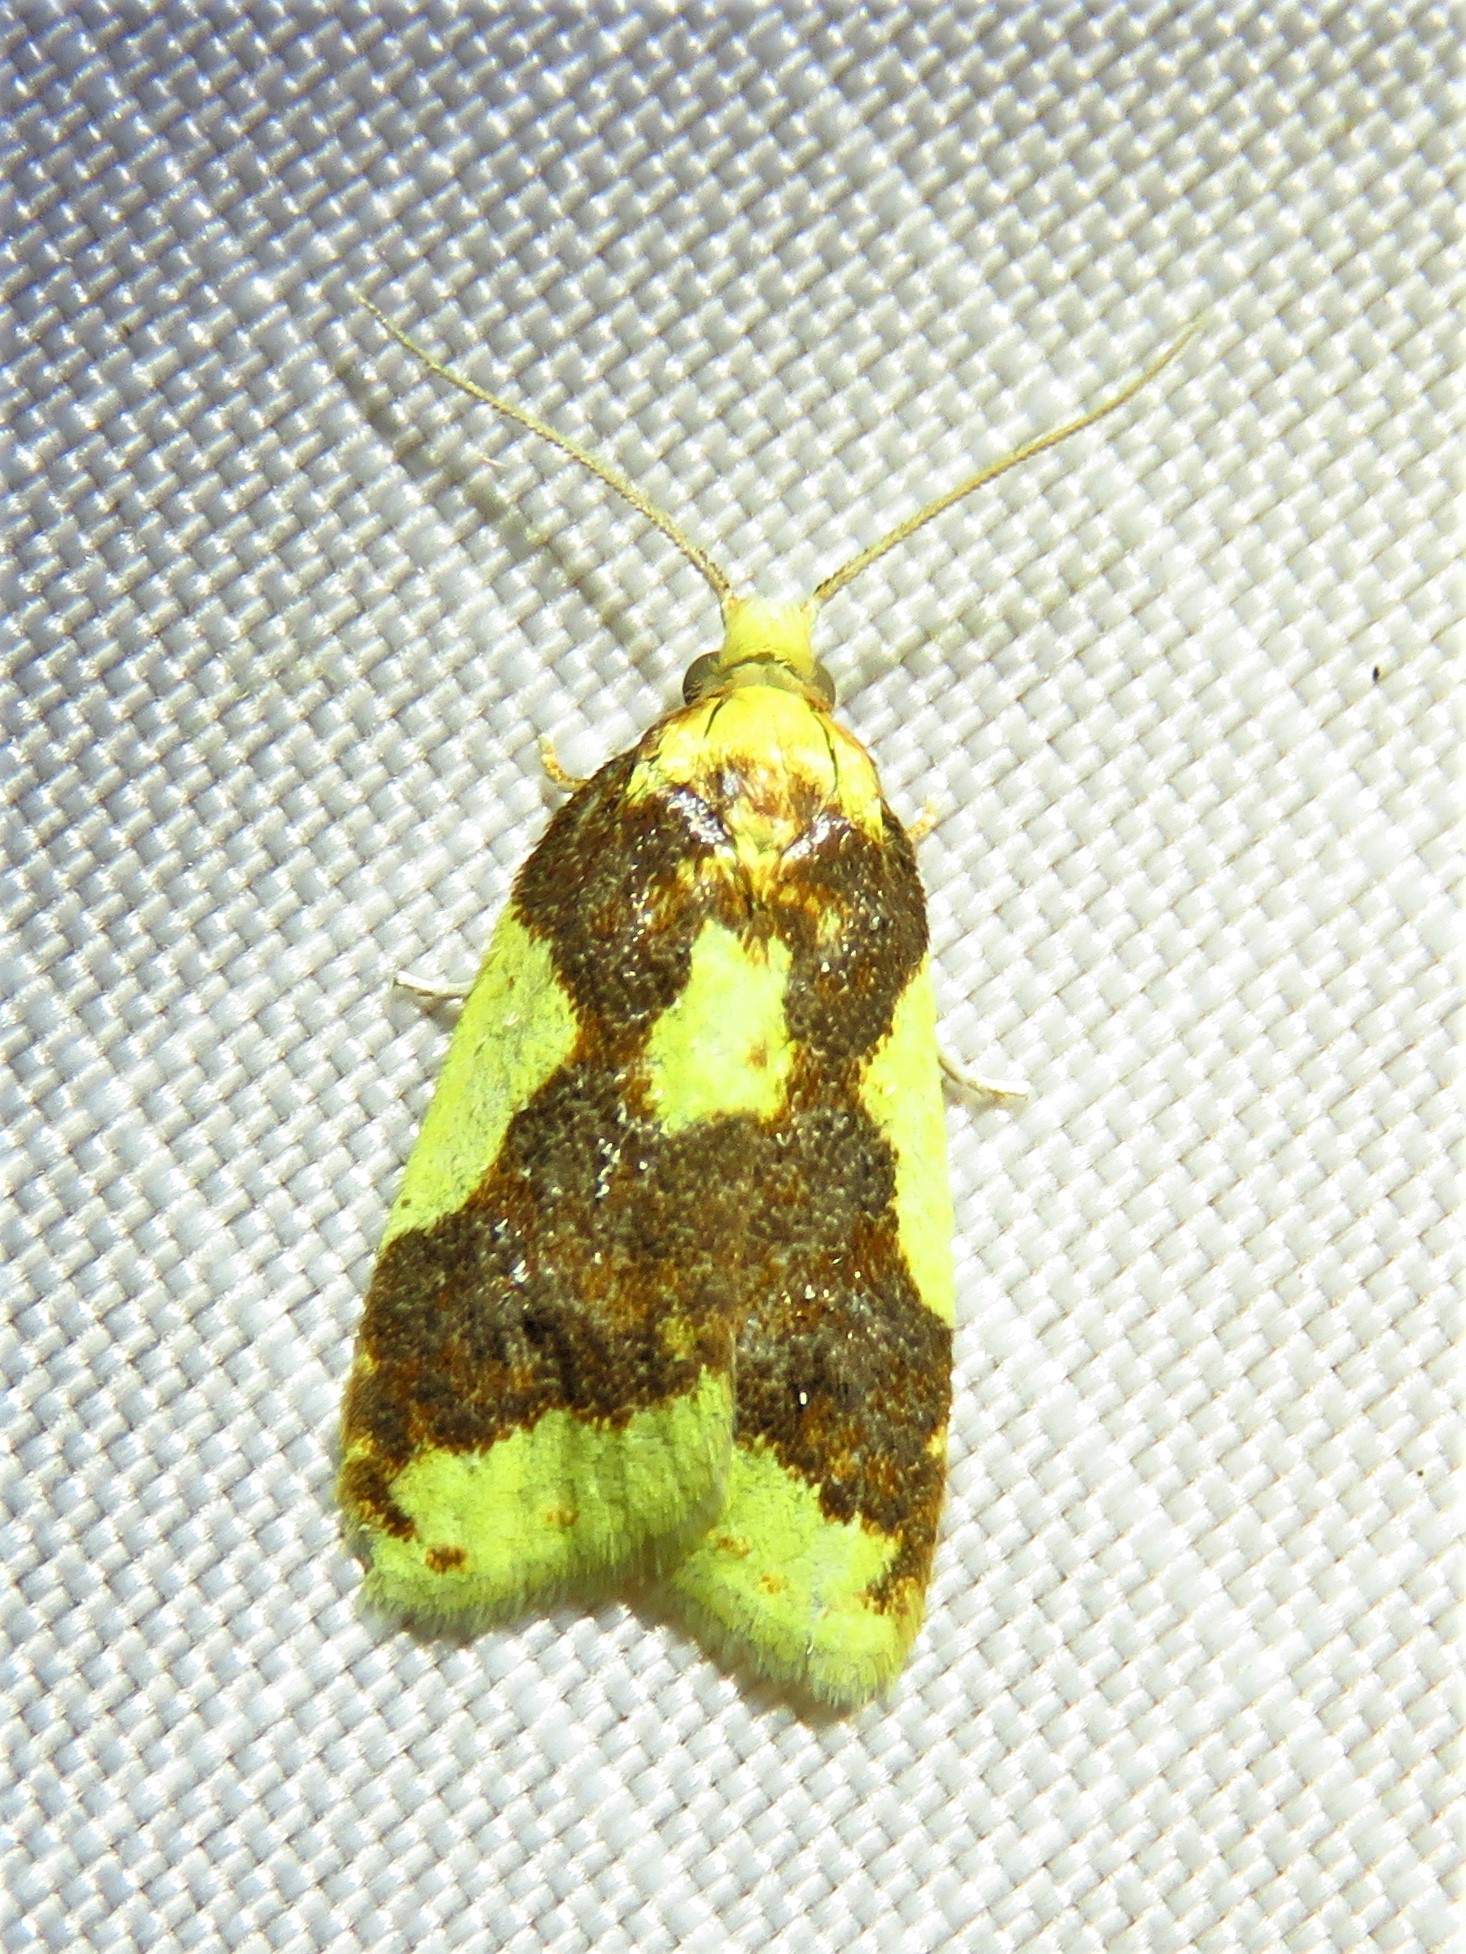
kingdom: Animalia
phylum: Arthropoda
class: Insecta
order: Lepidoptera
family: Tortricidae
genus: Sparganothis
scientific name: Sparganothis pulcherrimana
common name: Beautiful sparganothis
